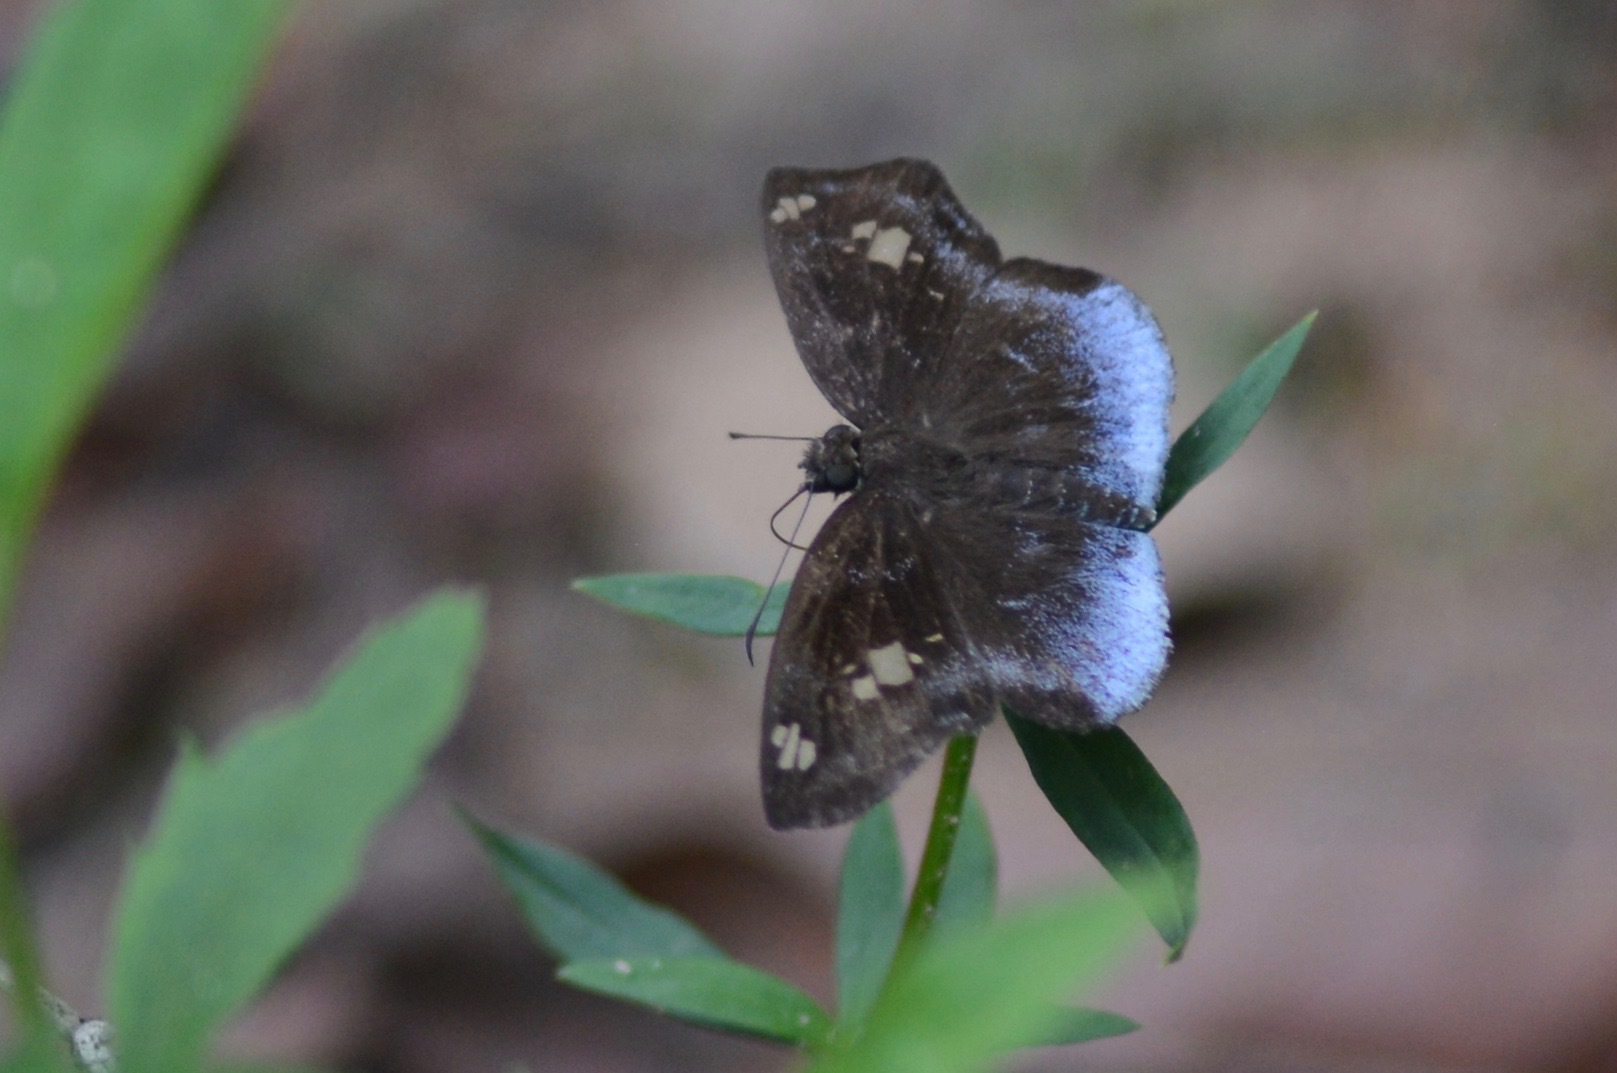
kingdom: Animalia
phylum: Arthropoda
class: Insecta
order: Lepidoptera
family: Hesperiidae
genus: Gindanes
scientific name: Gindanes bora
